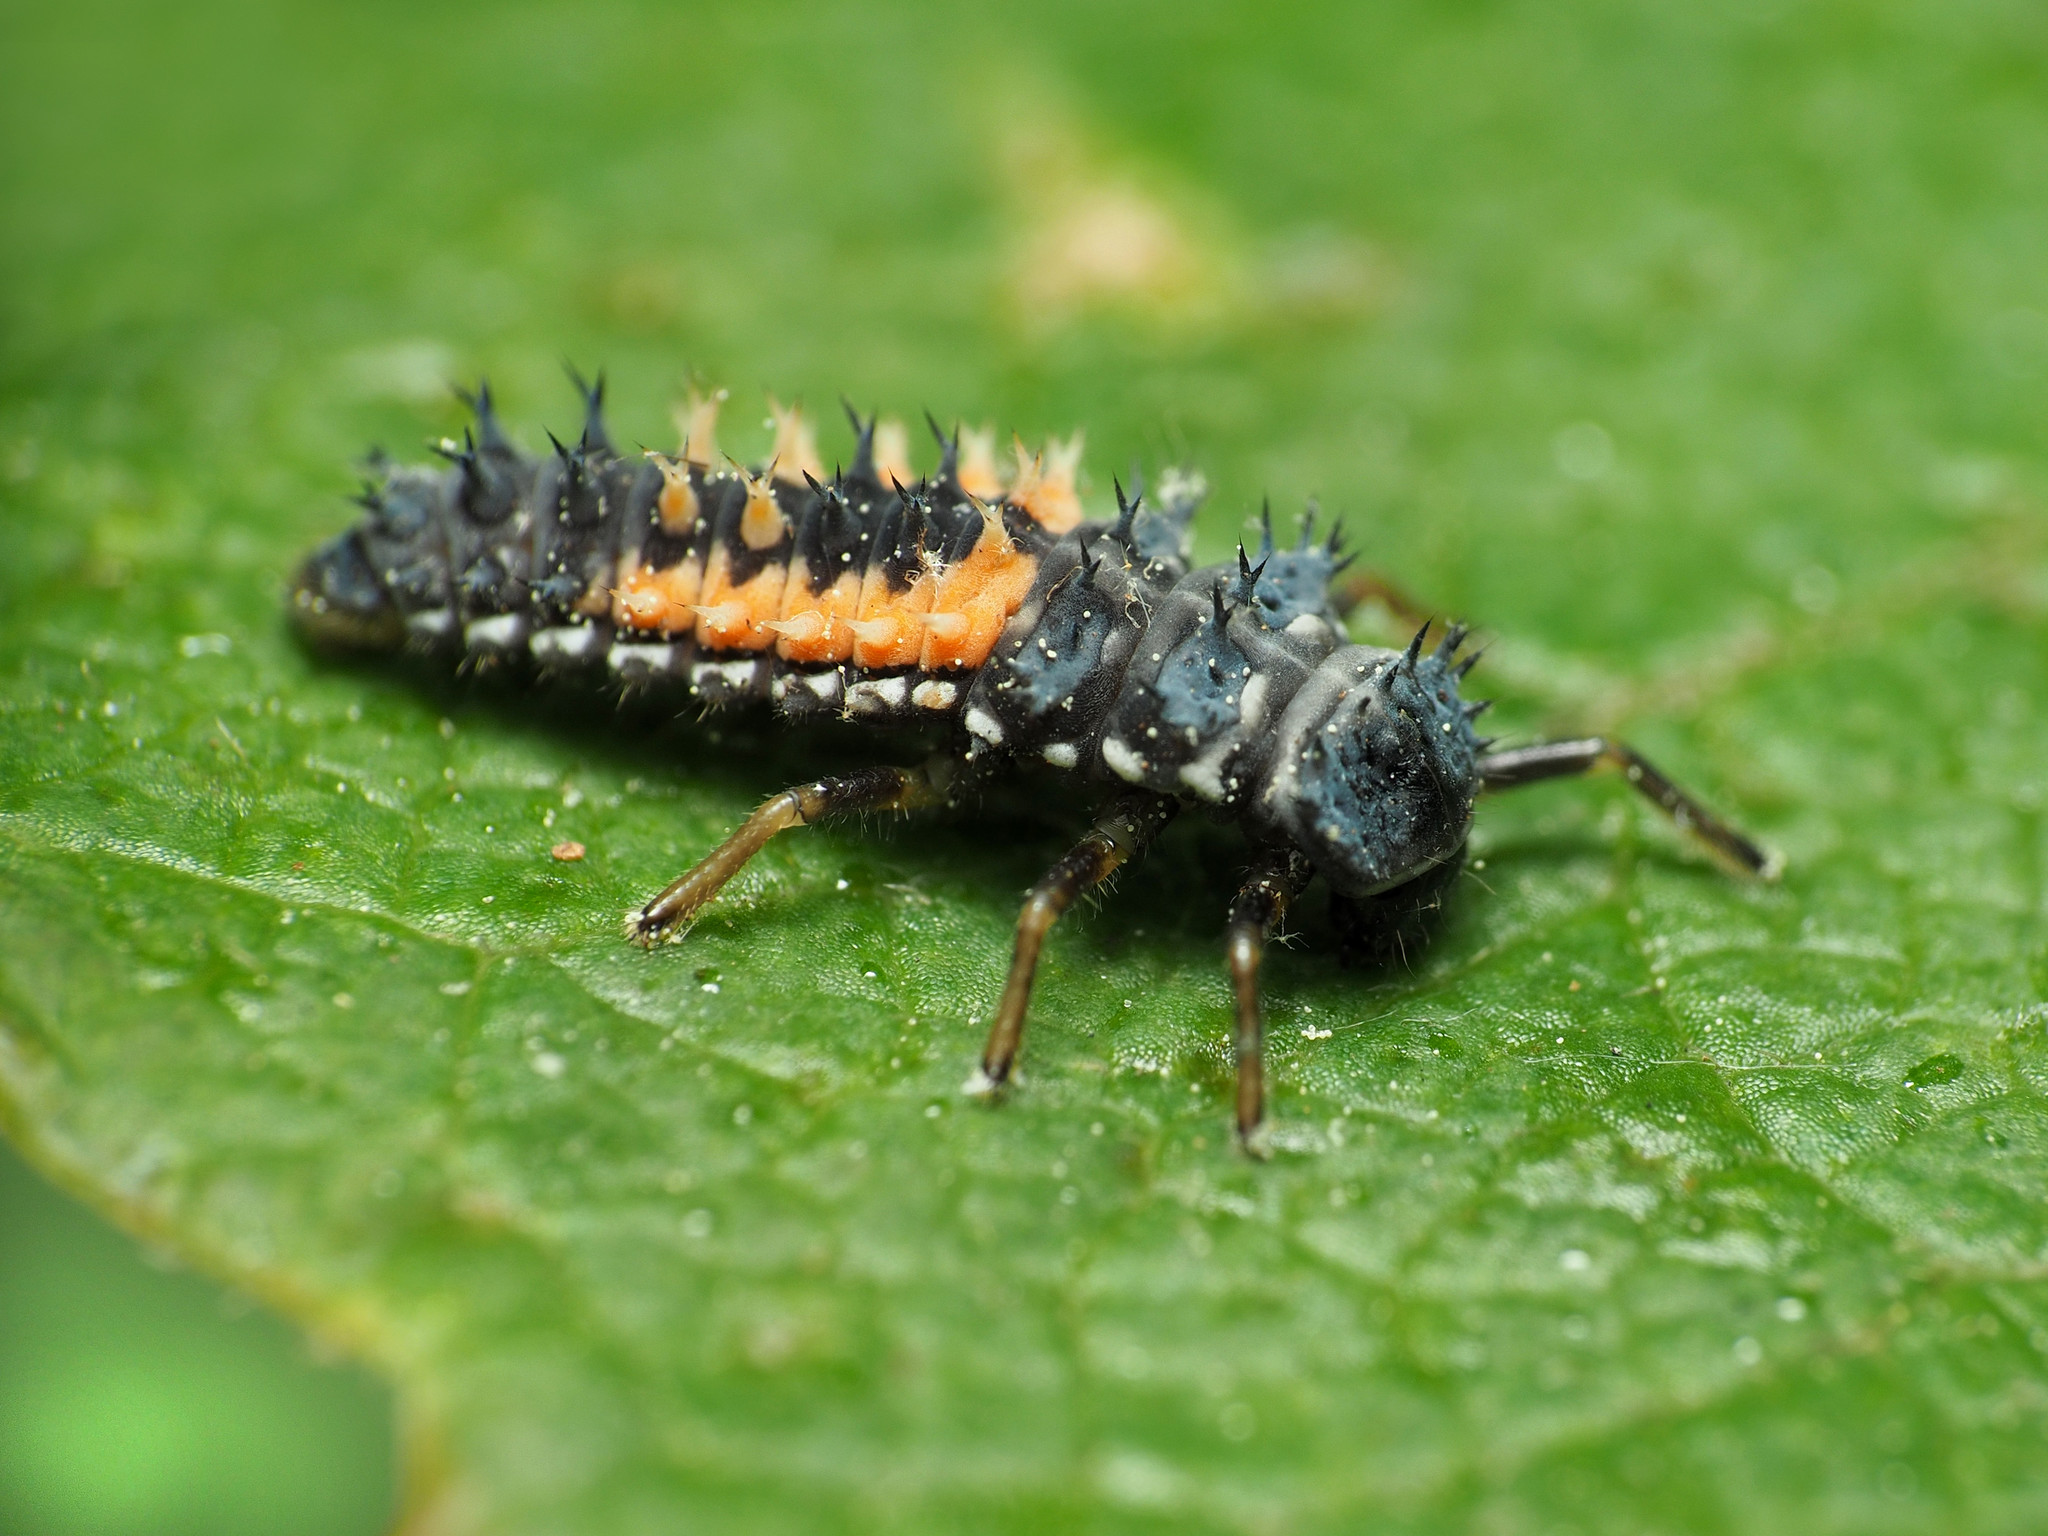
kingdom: Animalia
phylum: Arthropoda
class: Insecta
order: Coleoptera
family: Coccinellidae
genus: Harmonia
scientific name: Harmonia axyridis
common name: Harlequin ladybird
